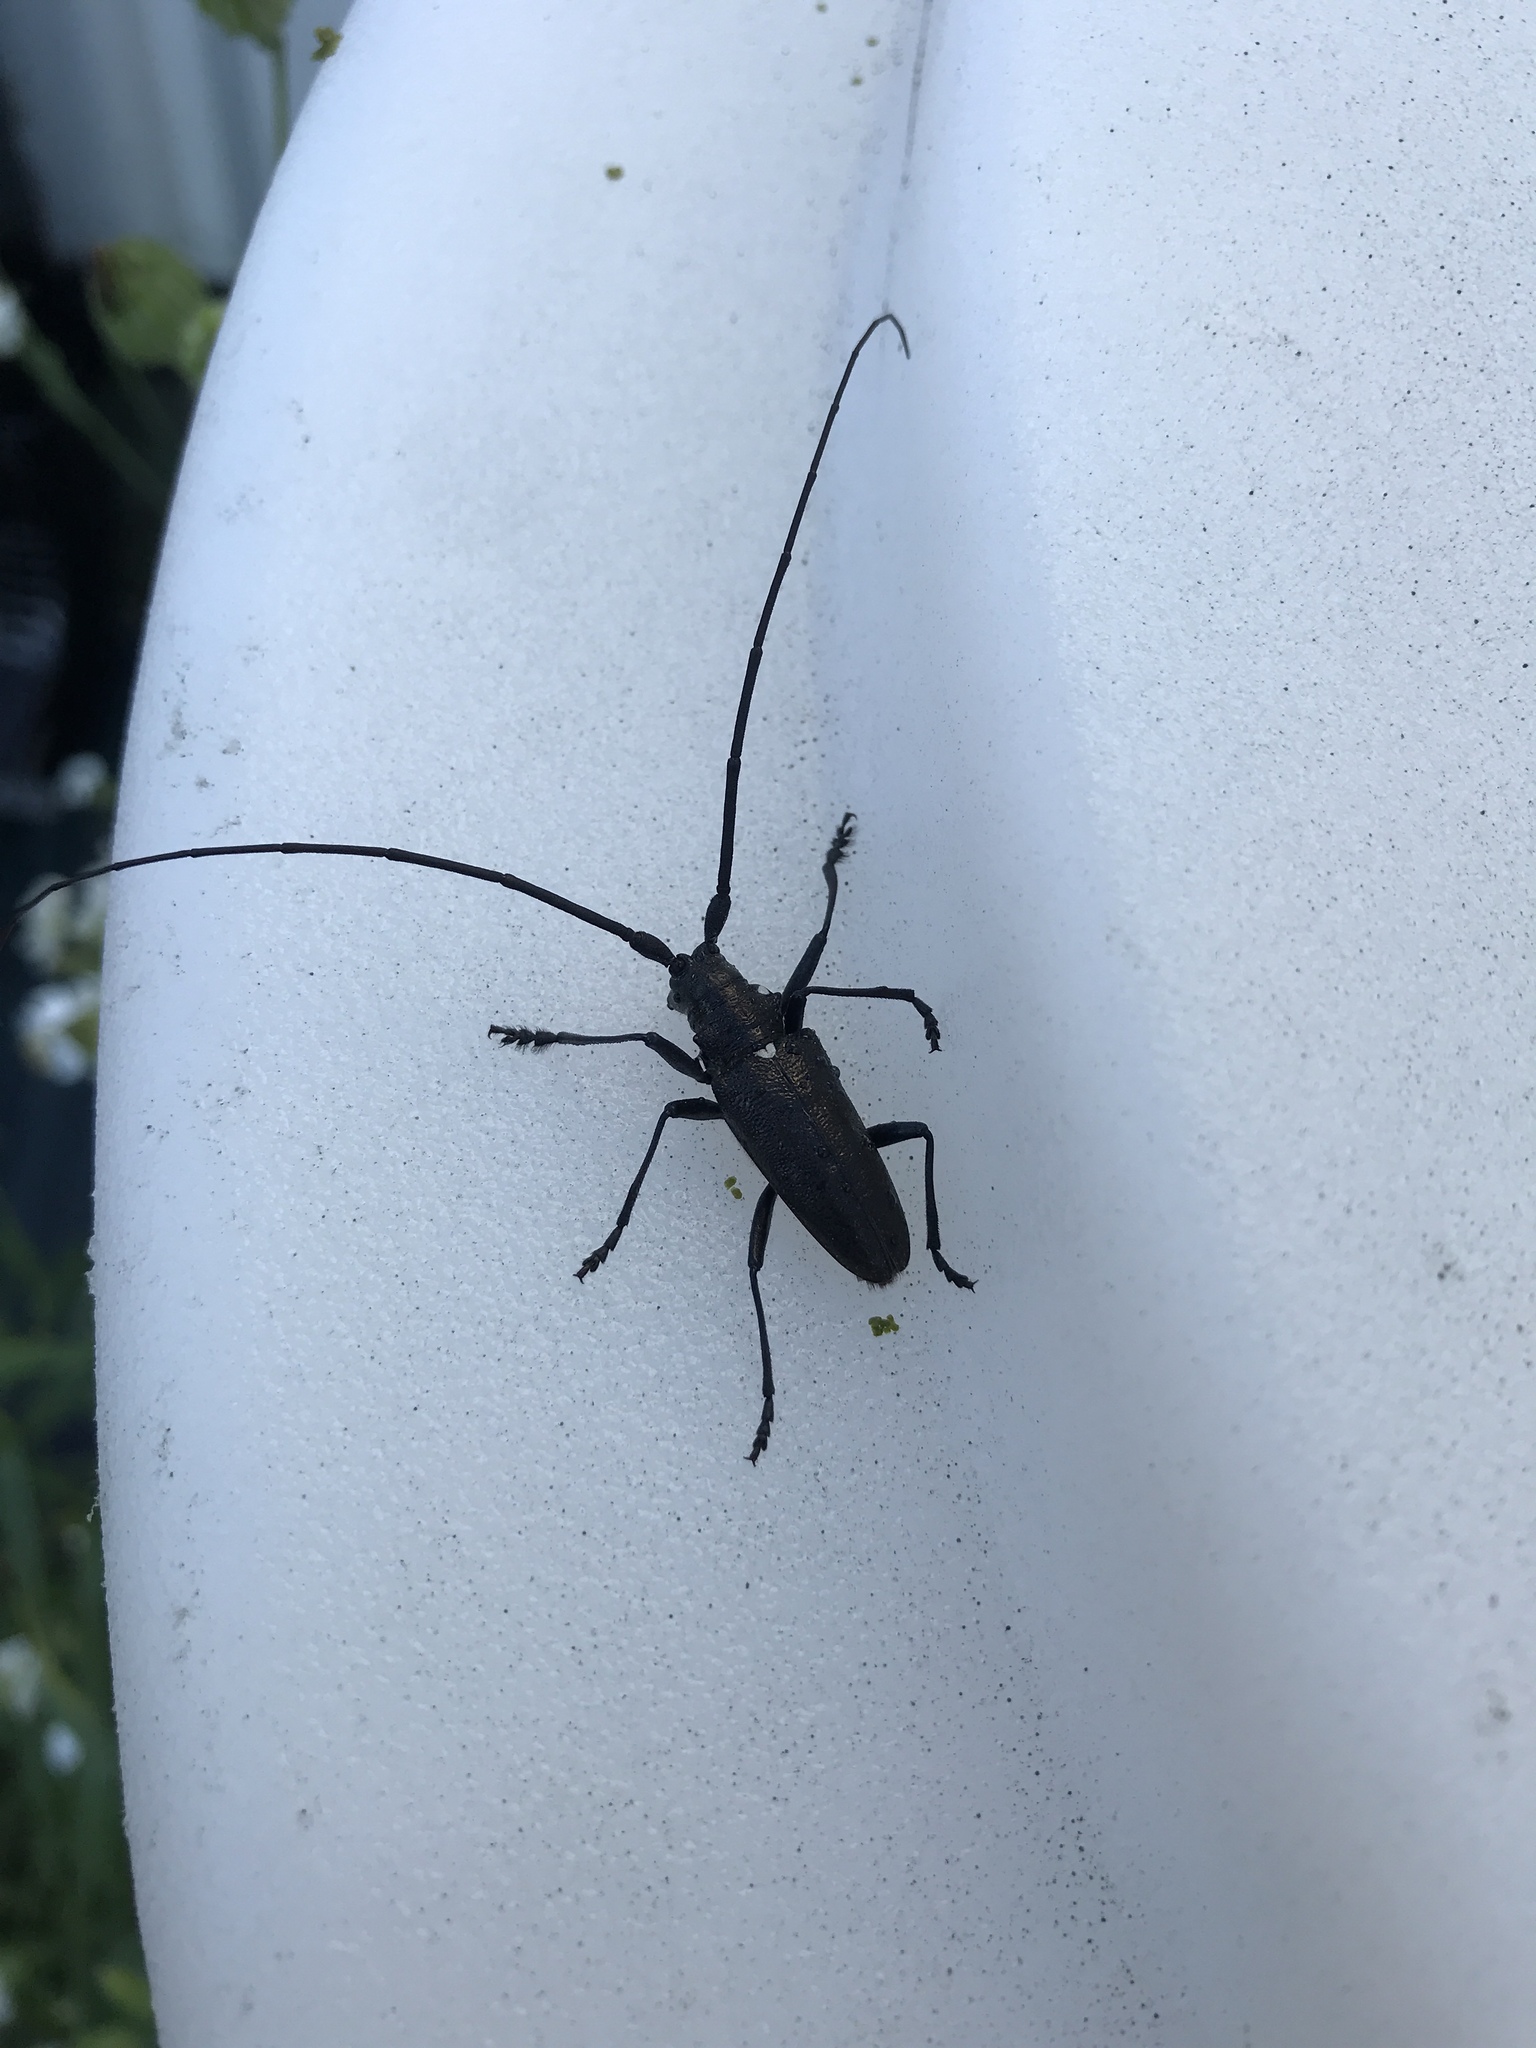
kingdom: Animalia
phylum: Arthropoda
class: Insecta
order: Coleoptera
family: Cerambycidae
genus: Monochamus
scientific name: Monochamus scutellatus
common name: White-spotted sawyer beetle
